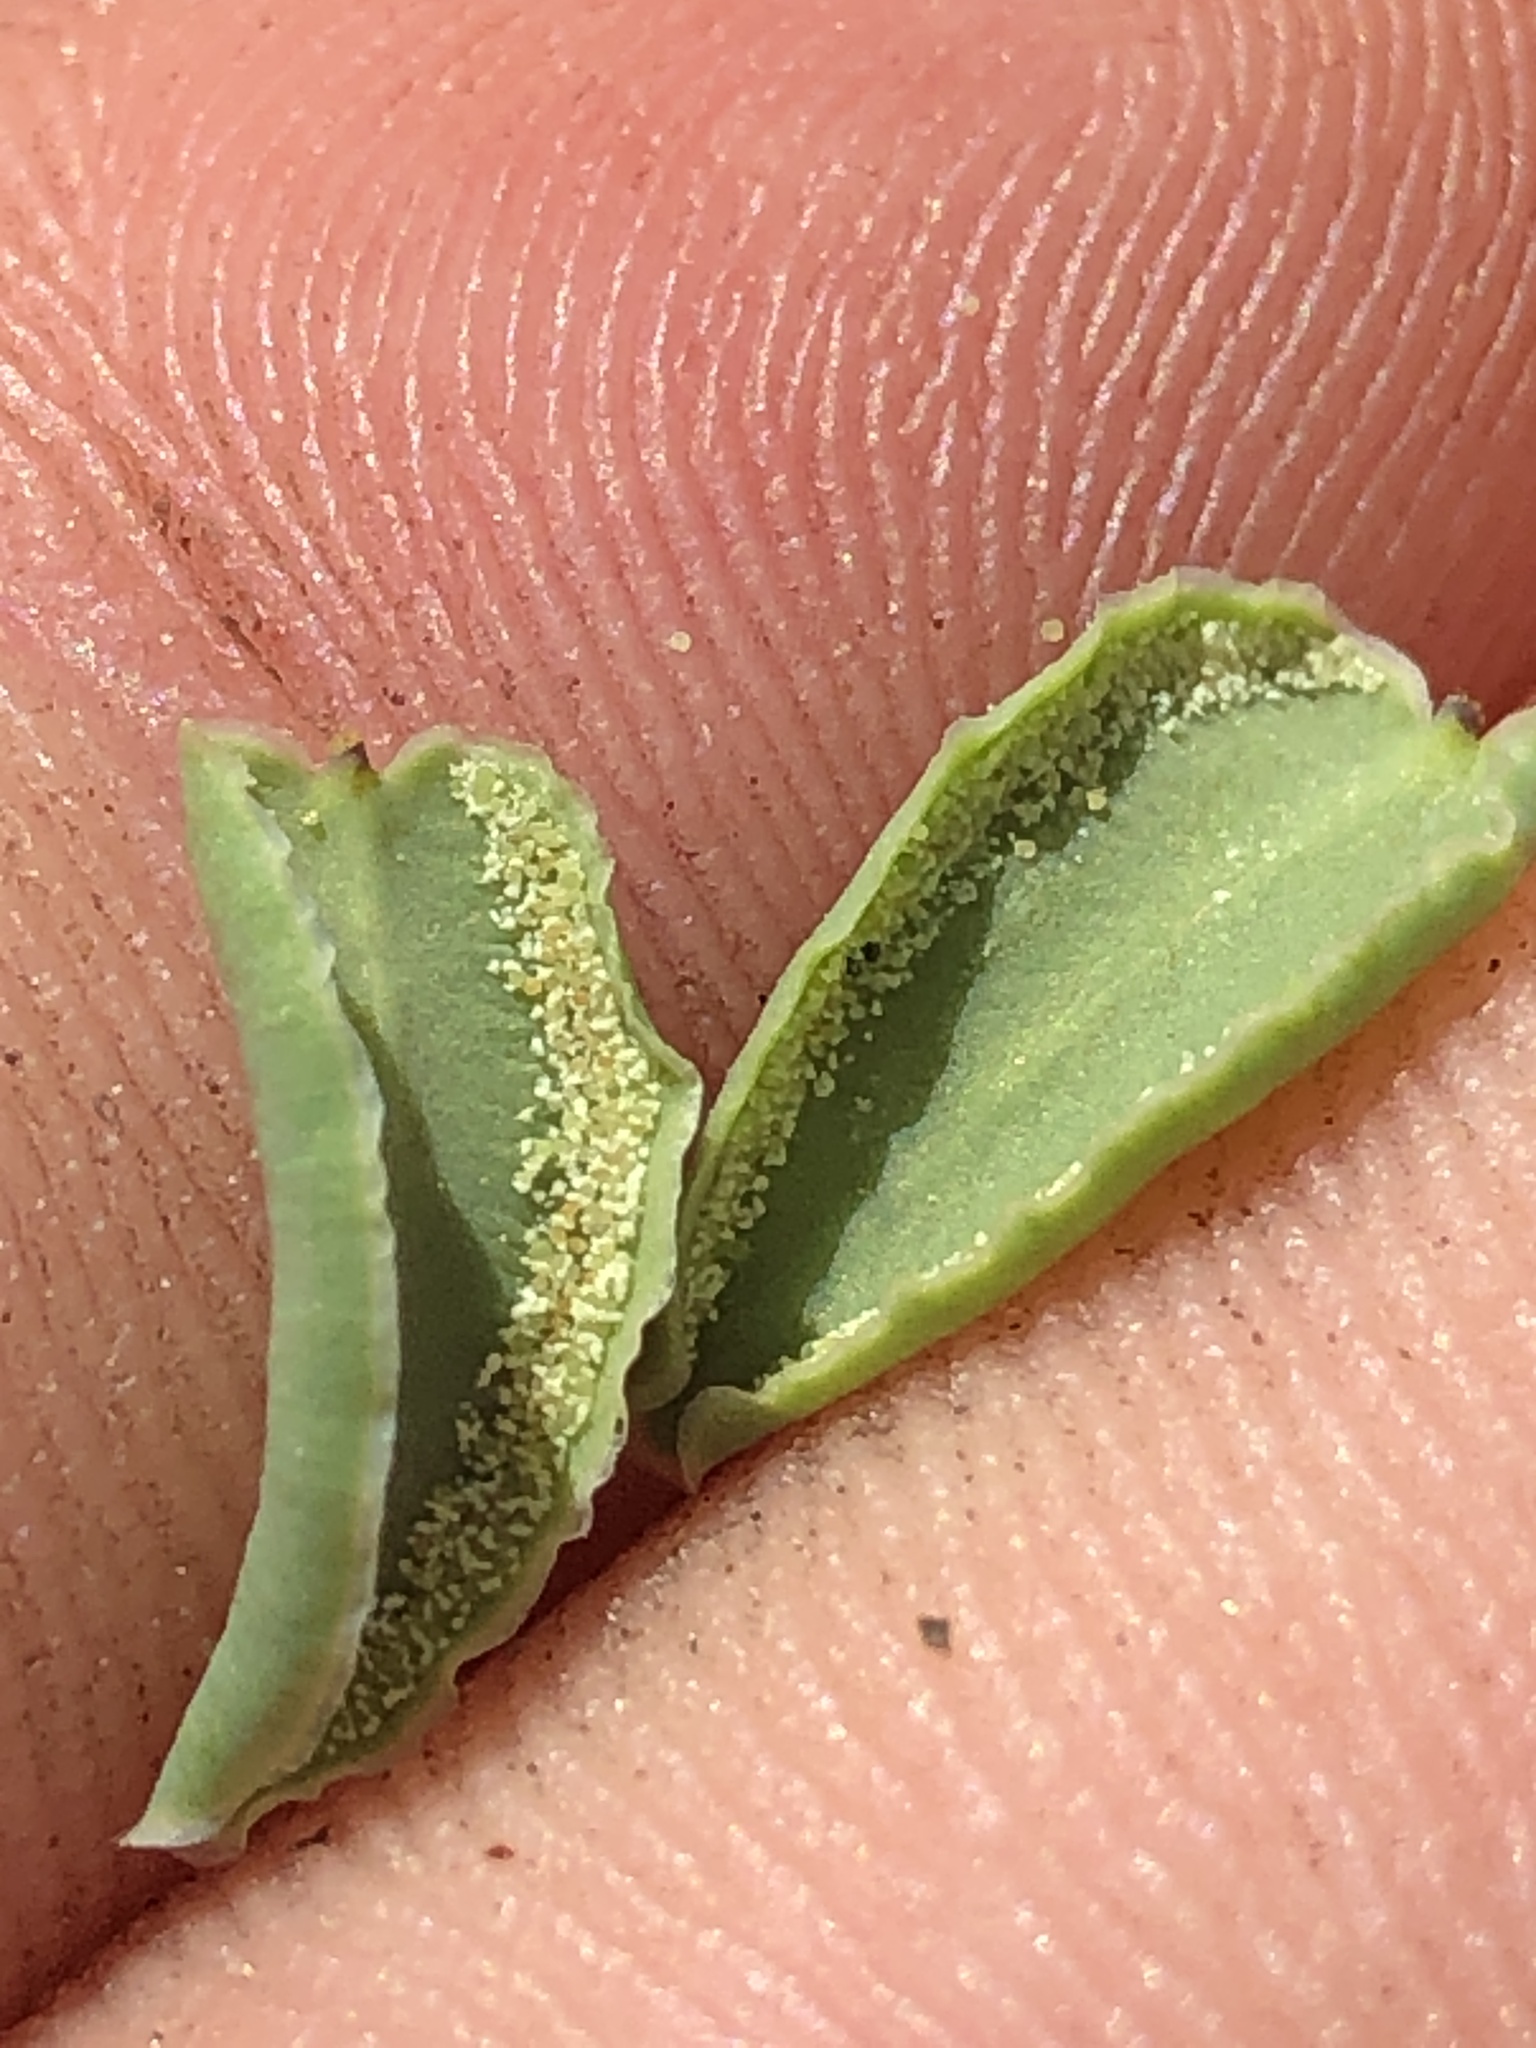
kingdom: Plantae
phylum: Tracheophyta
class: Polypodiopsida
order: Polypodiales
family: Pteridaceae
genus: Pellaea
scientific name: Pellaea bridgesii
